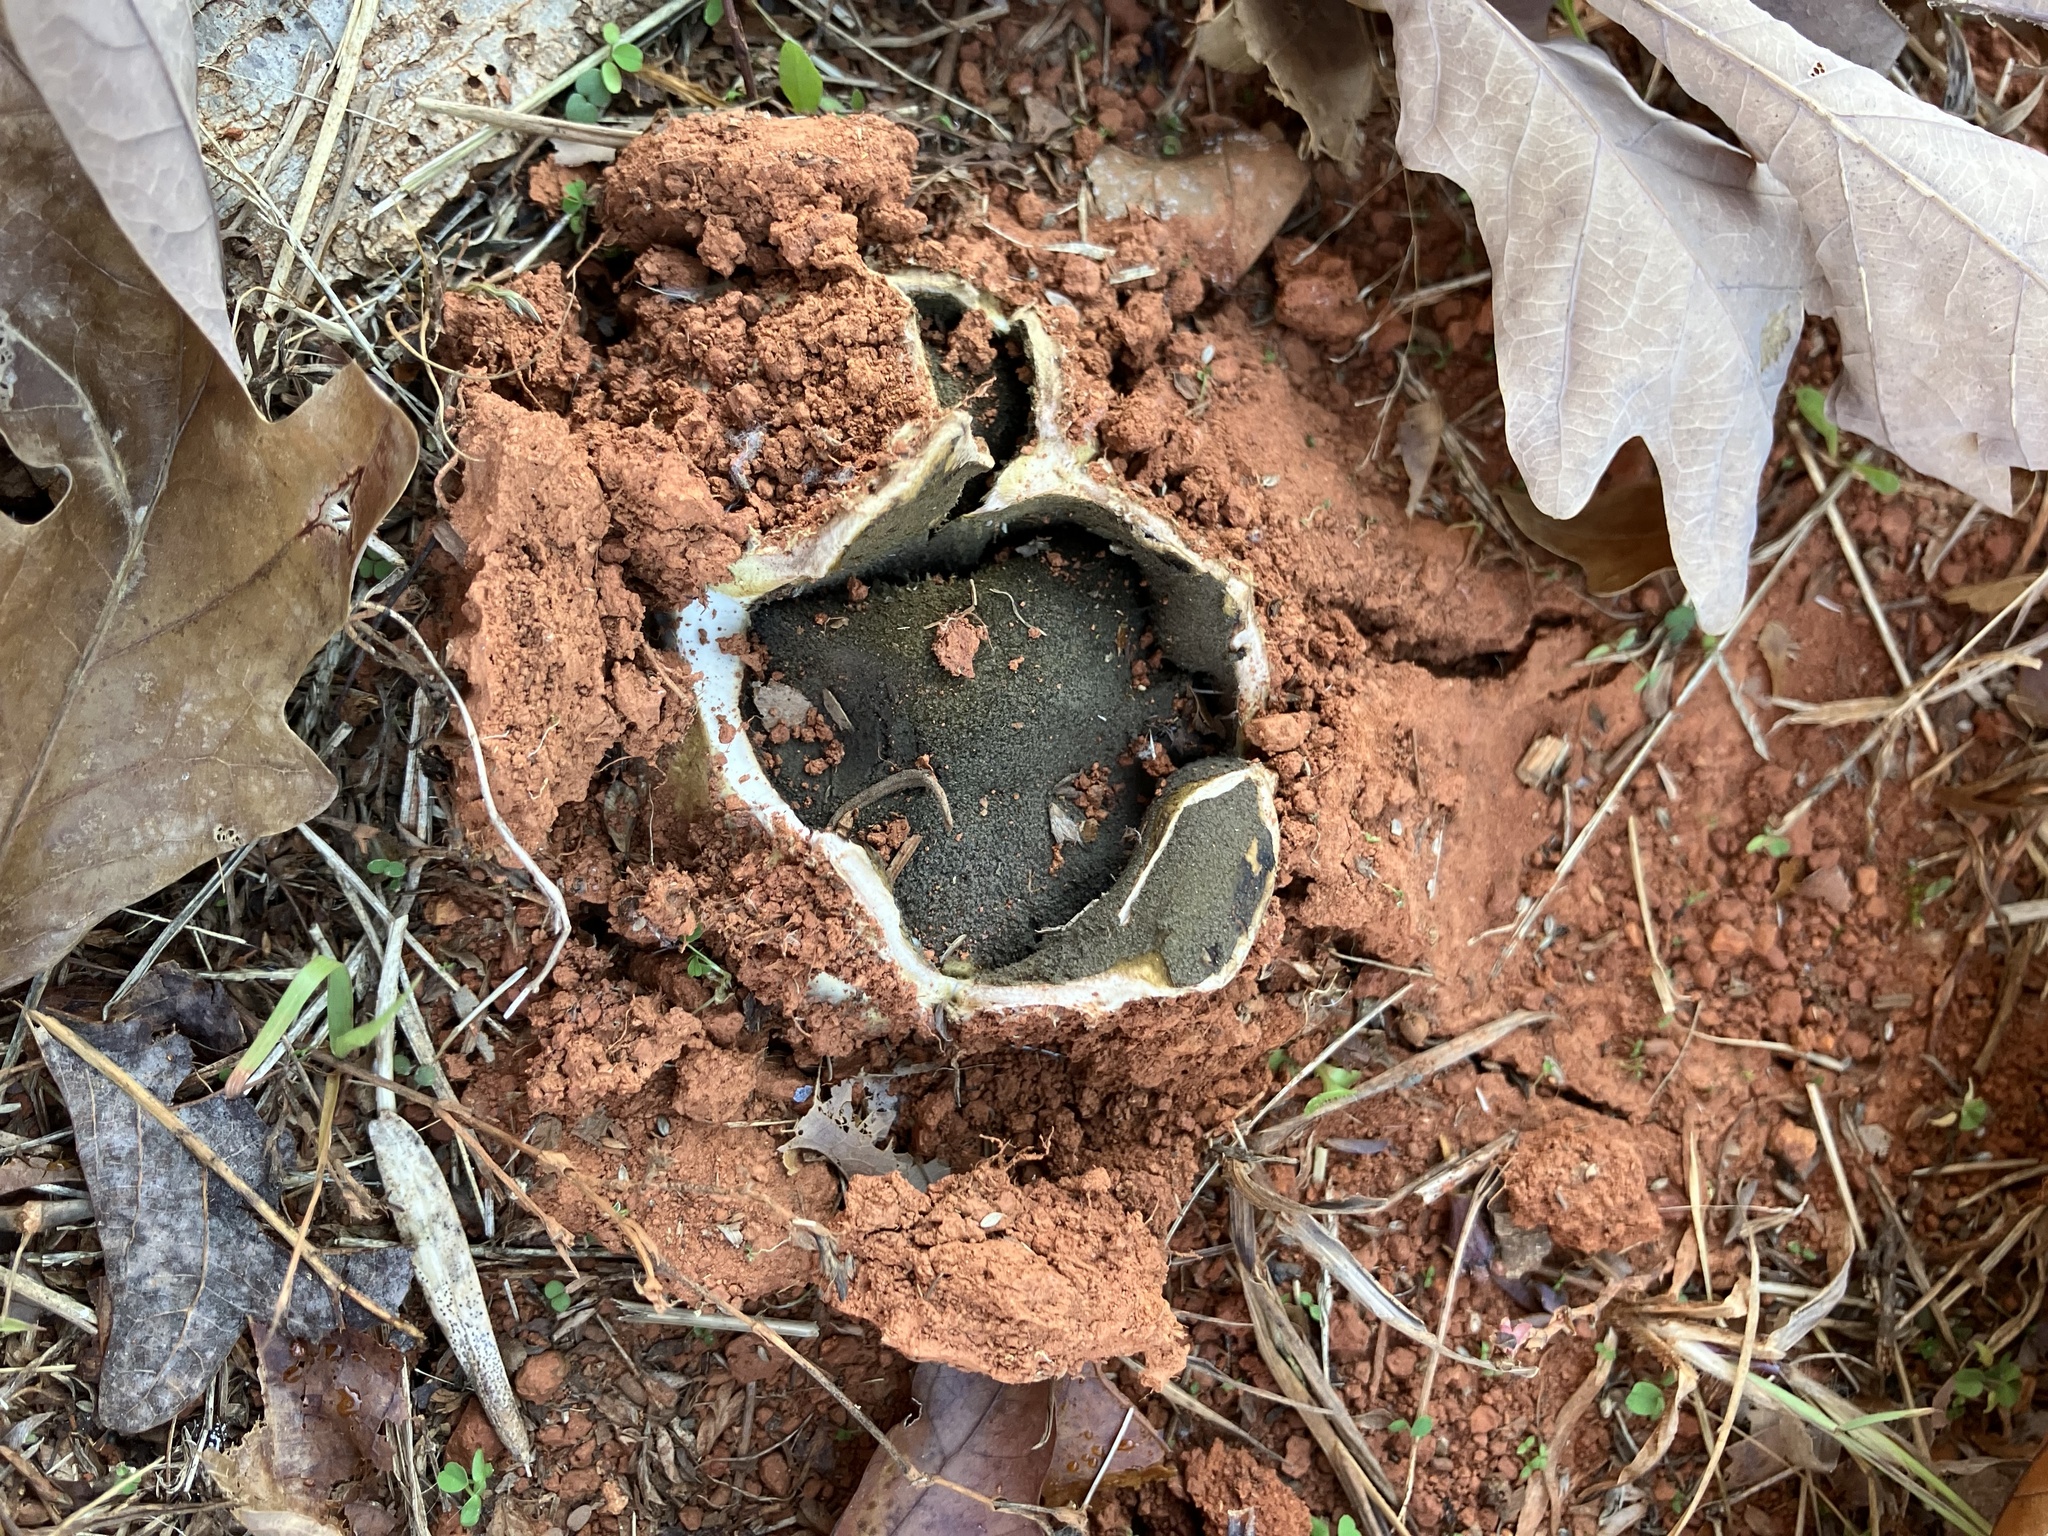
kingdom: Fungi
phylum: Basidiomycota
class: Agaricomycetes
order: Boletales
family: Sclerodermataceae
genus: Scleroderma
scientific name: Scleroderma polyrhizum
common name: Many-rooted earthball
